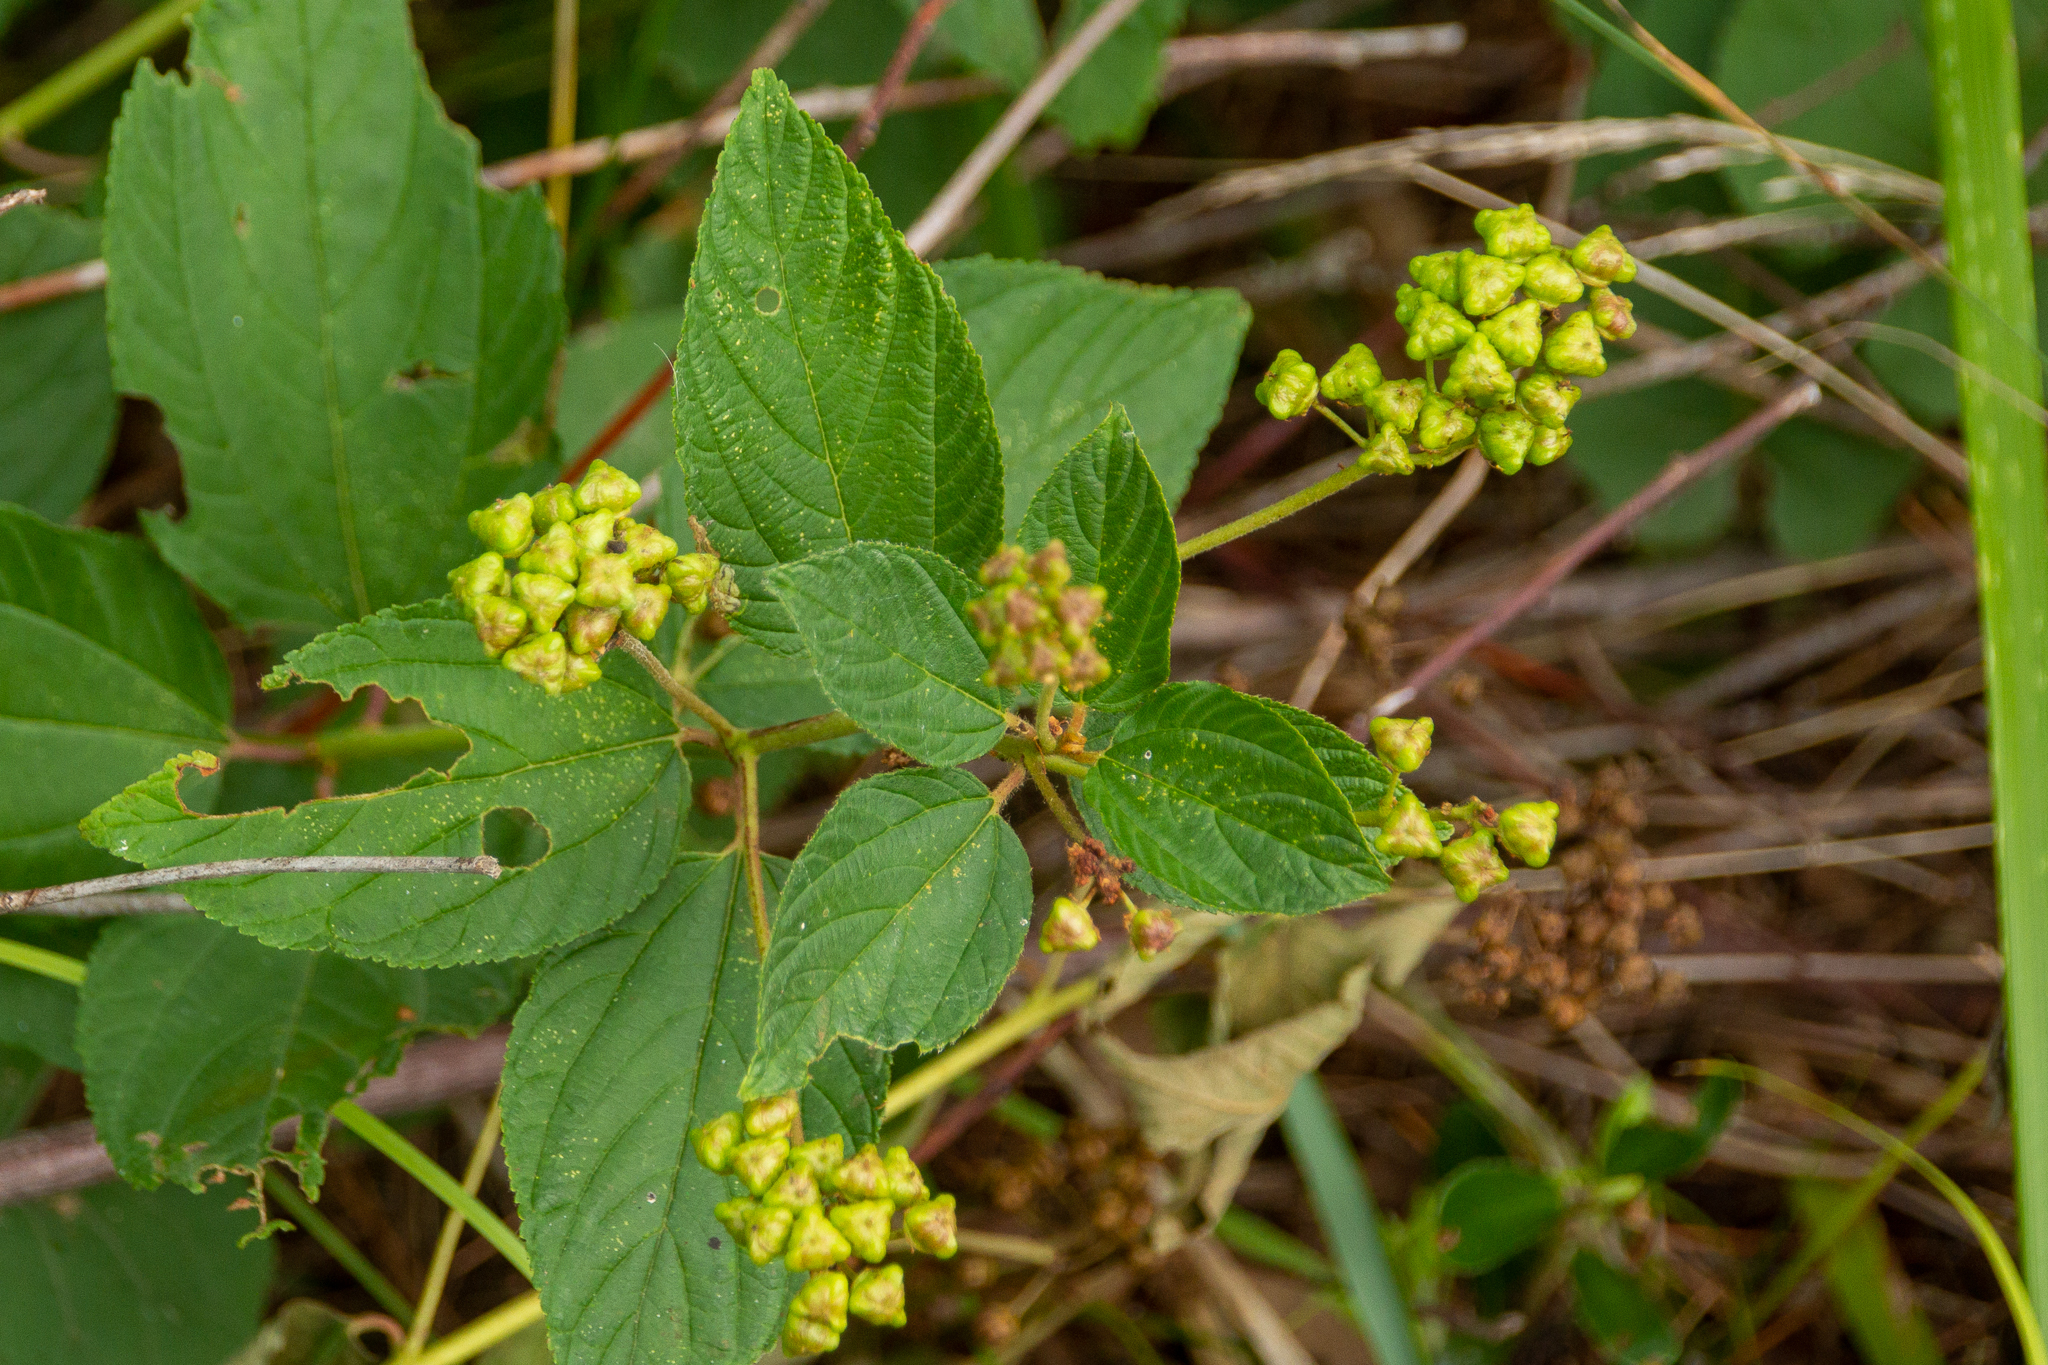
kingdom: Plantae
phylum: Tracheophyta
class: Magnoliopsida
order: Rosales
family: Rhamnaceae
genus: Ceanothus
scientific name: Ceanothus americanus
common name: Redroot
